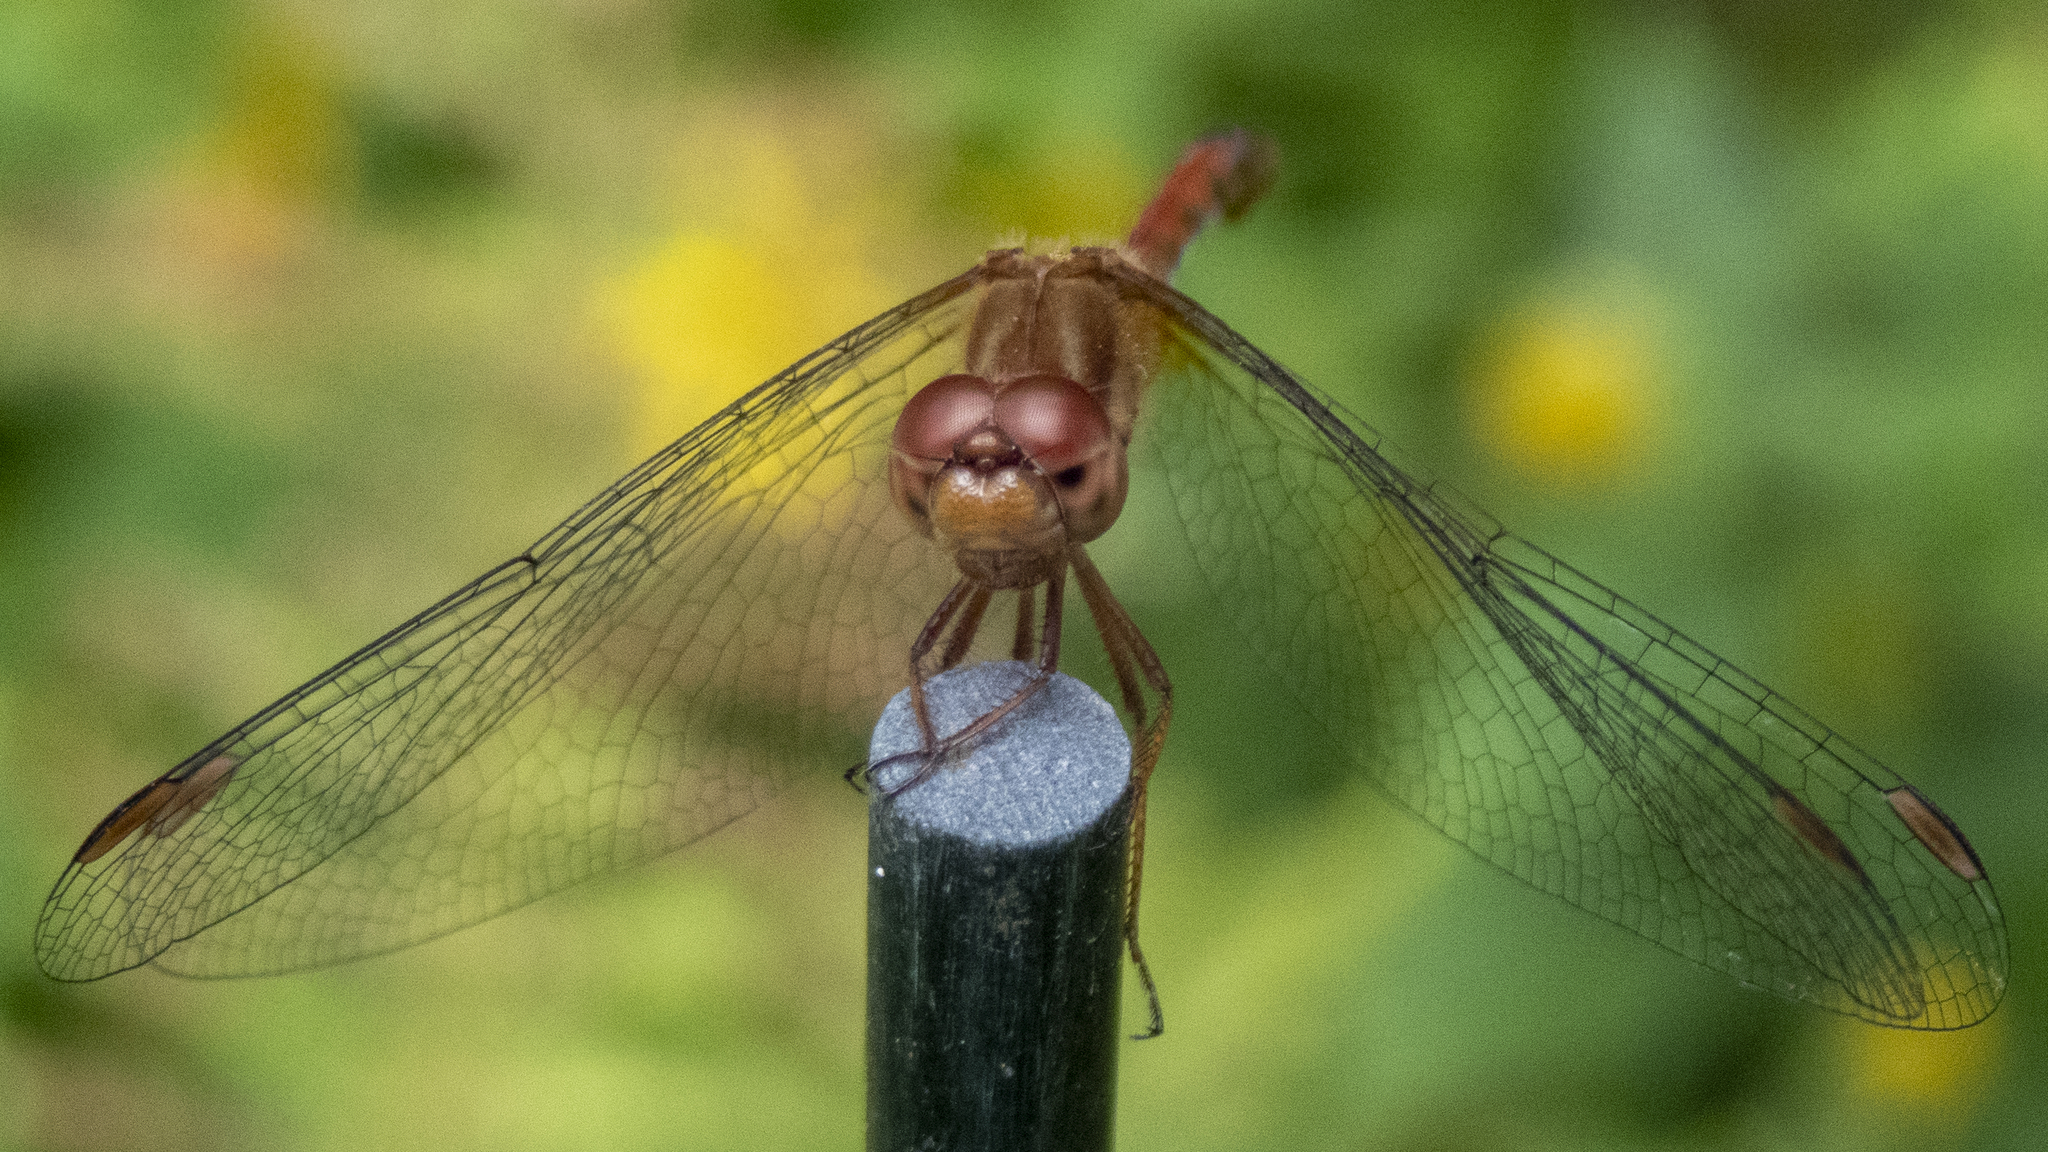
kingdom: Animalia
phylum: Arthropoda
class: Insecta
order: Odonata
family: Libellulidae
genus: Sympetrum
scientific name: Sympetrum vicinum
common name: Autumn meadowhawk
